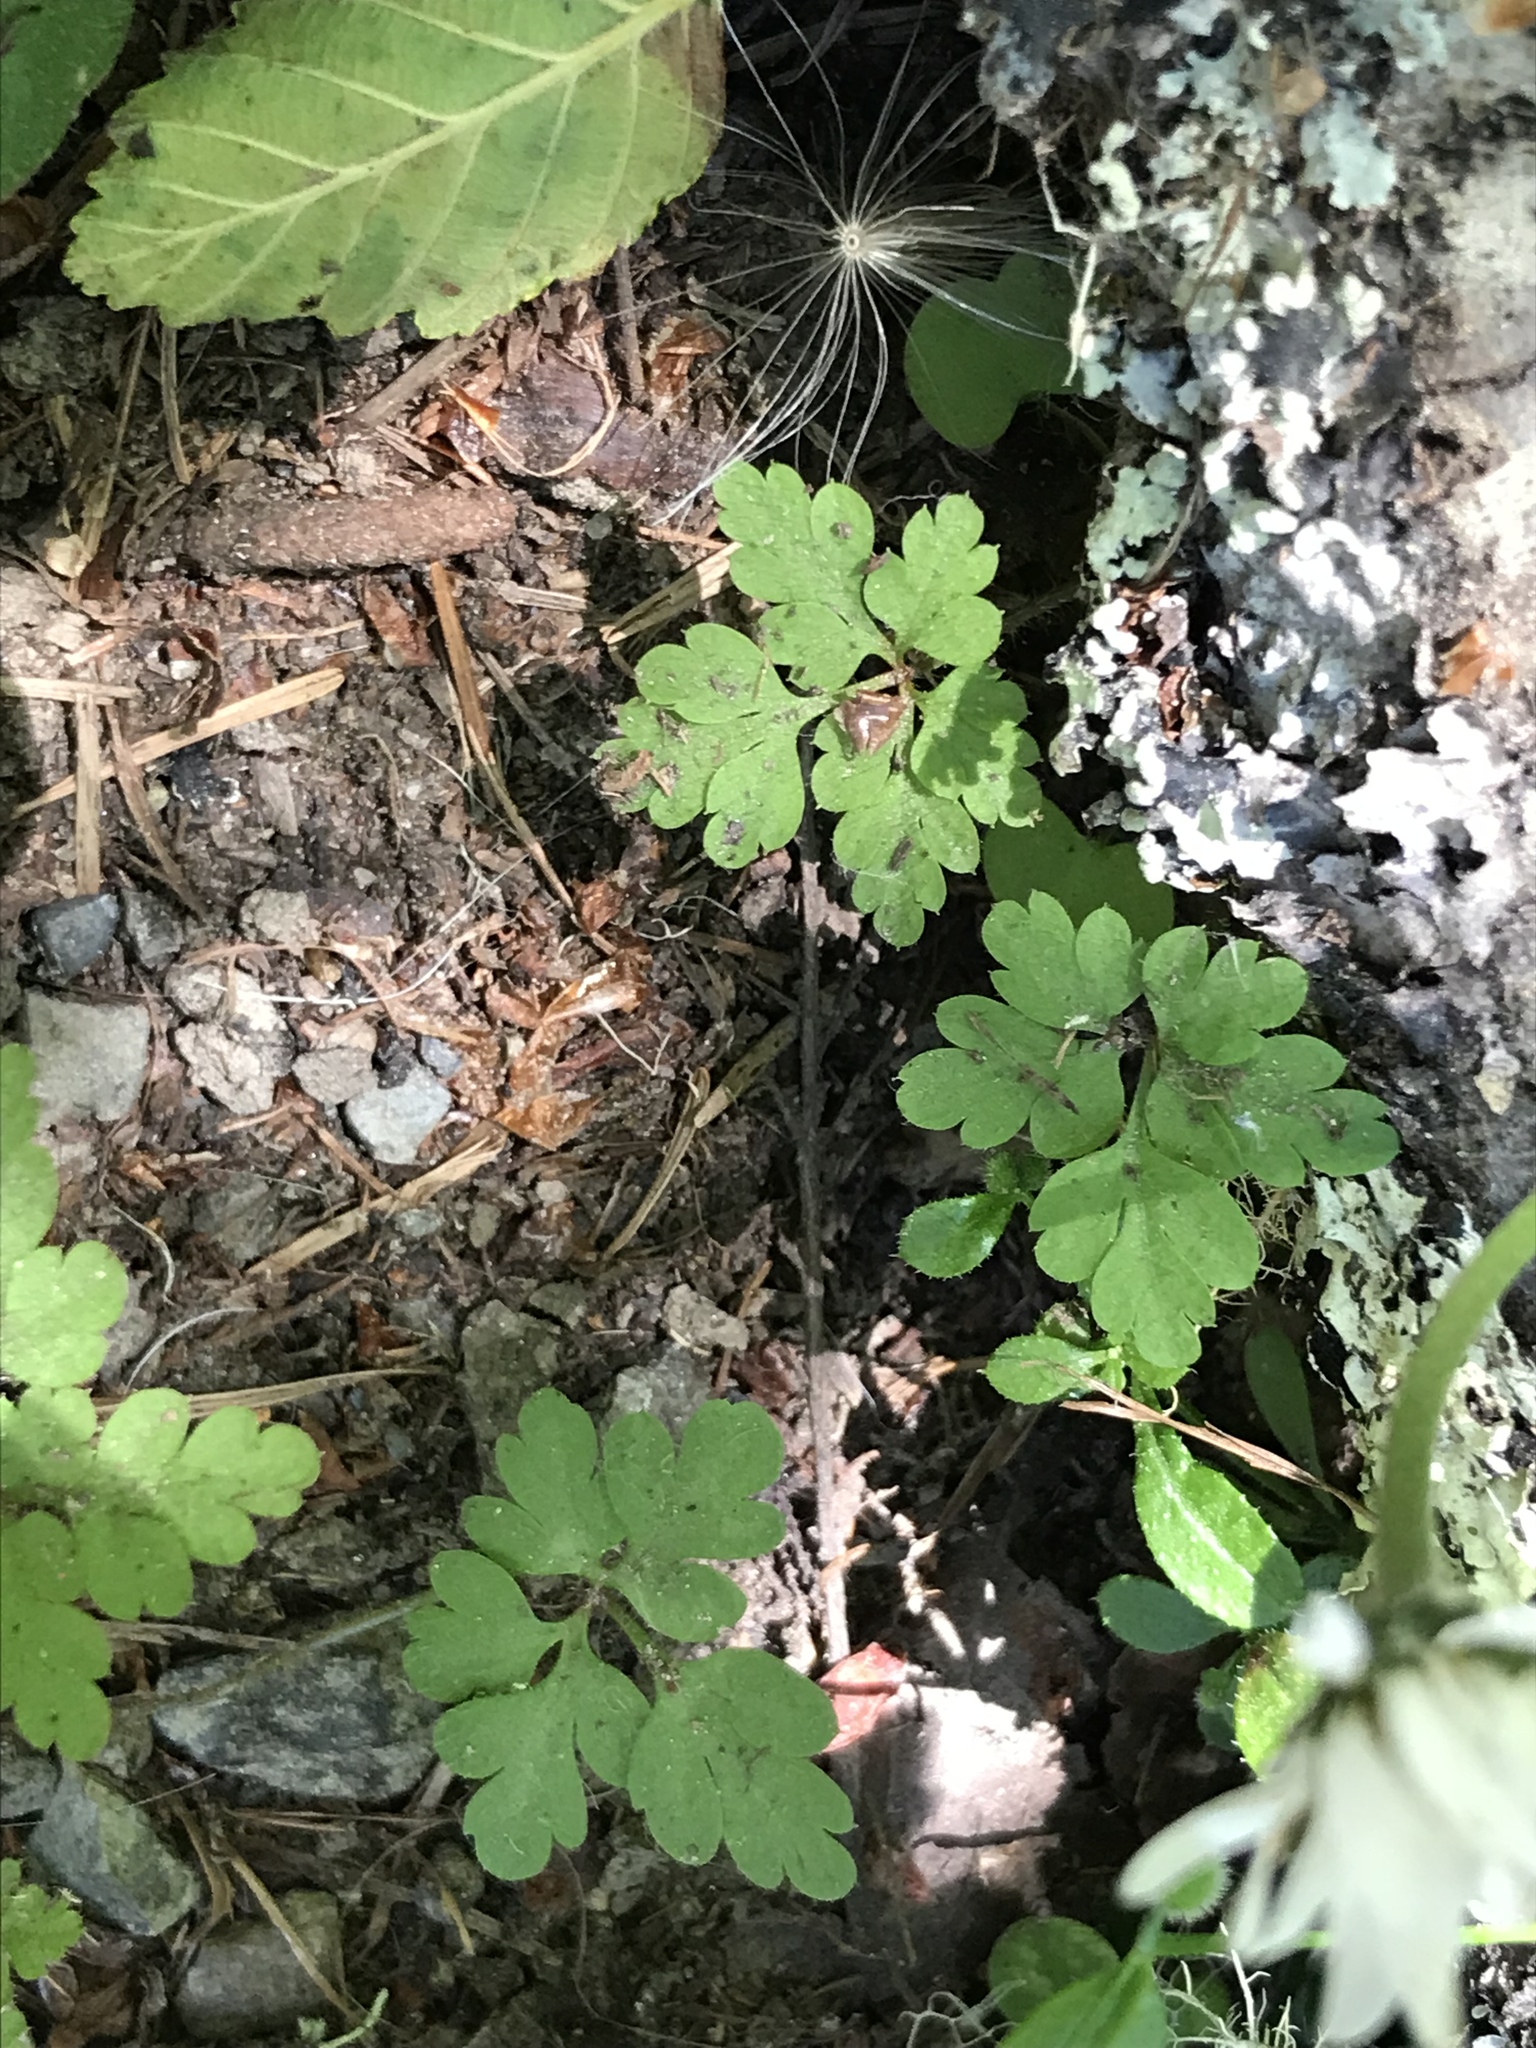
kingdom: Plantae
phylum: Tracheophyta
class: Magnoliopsida
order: Geraniales
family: Geraniaceae
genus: Geranium
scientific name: Geranium
